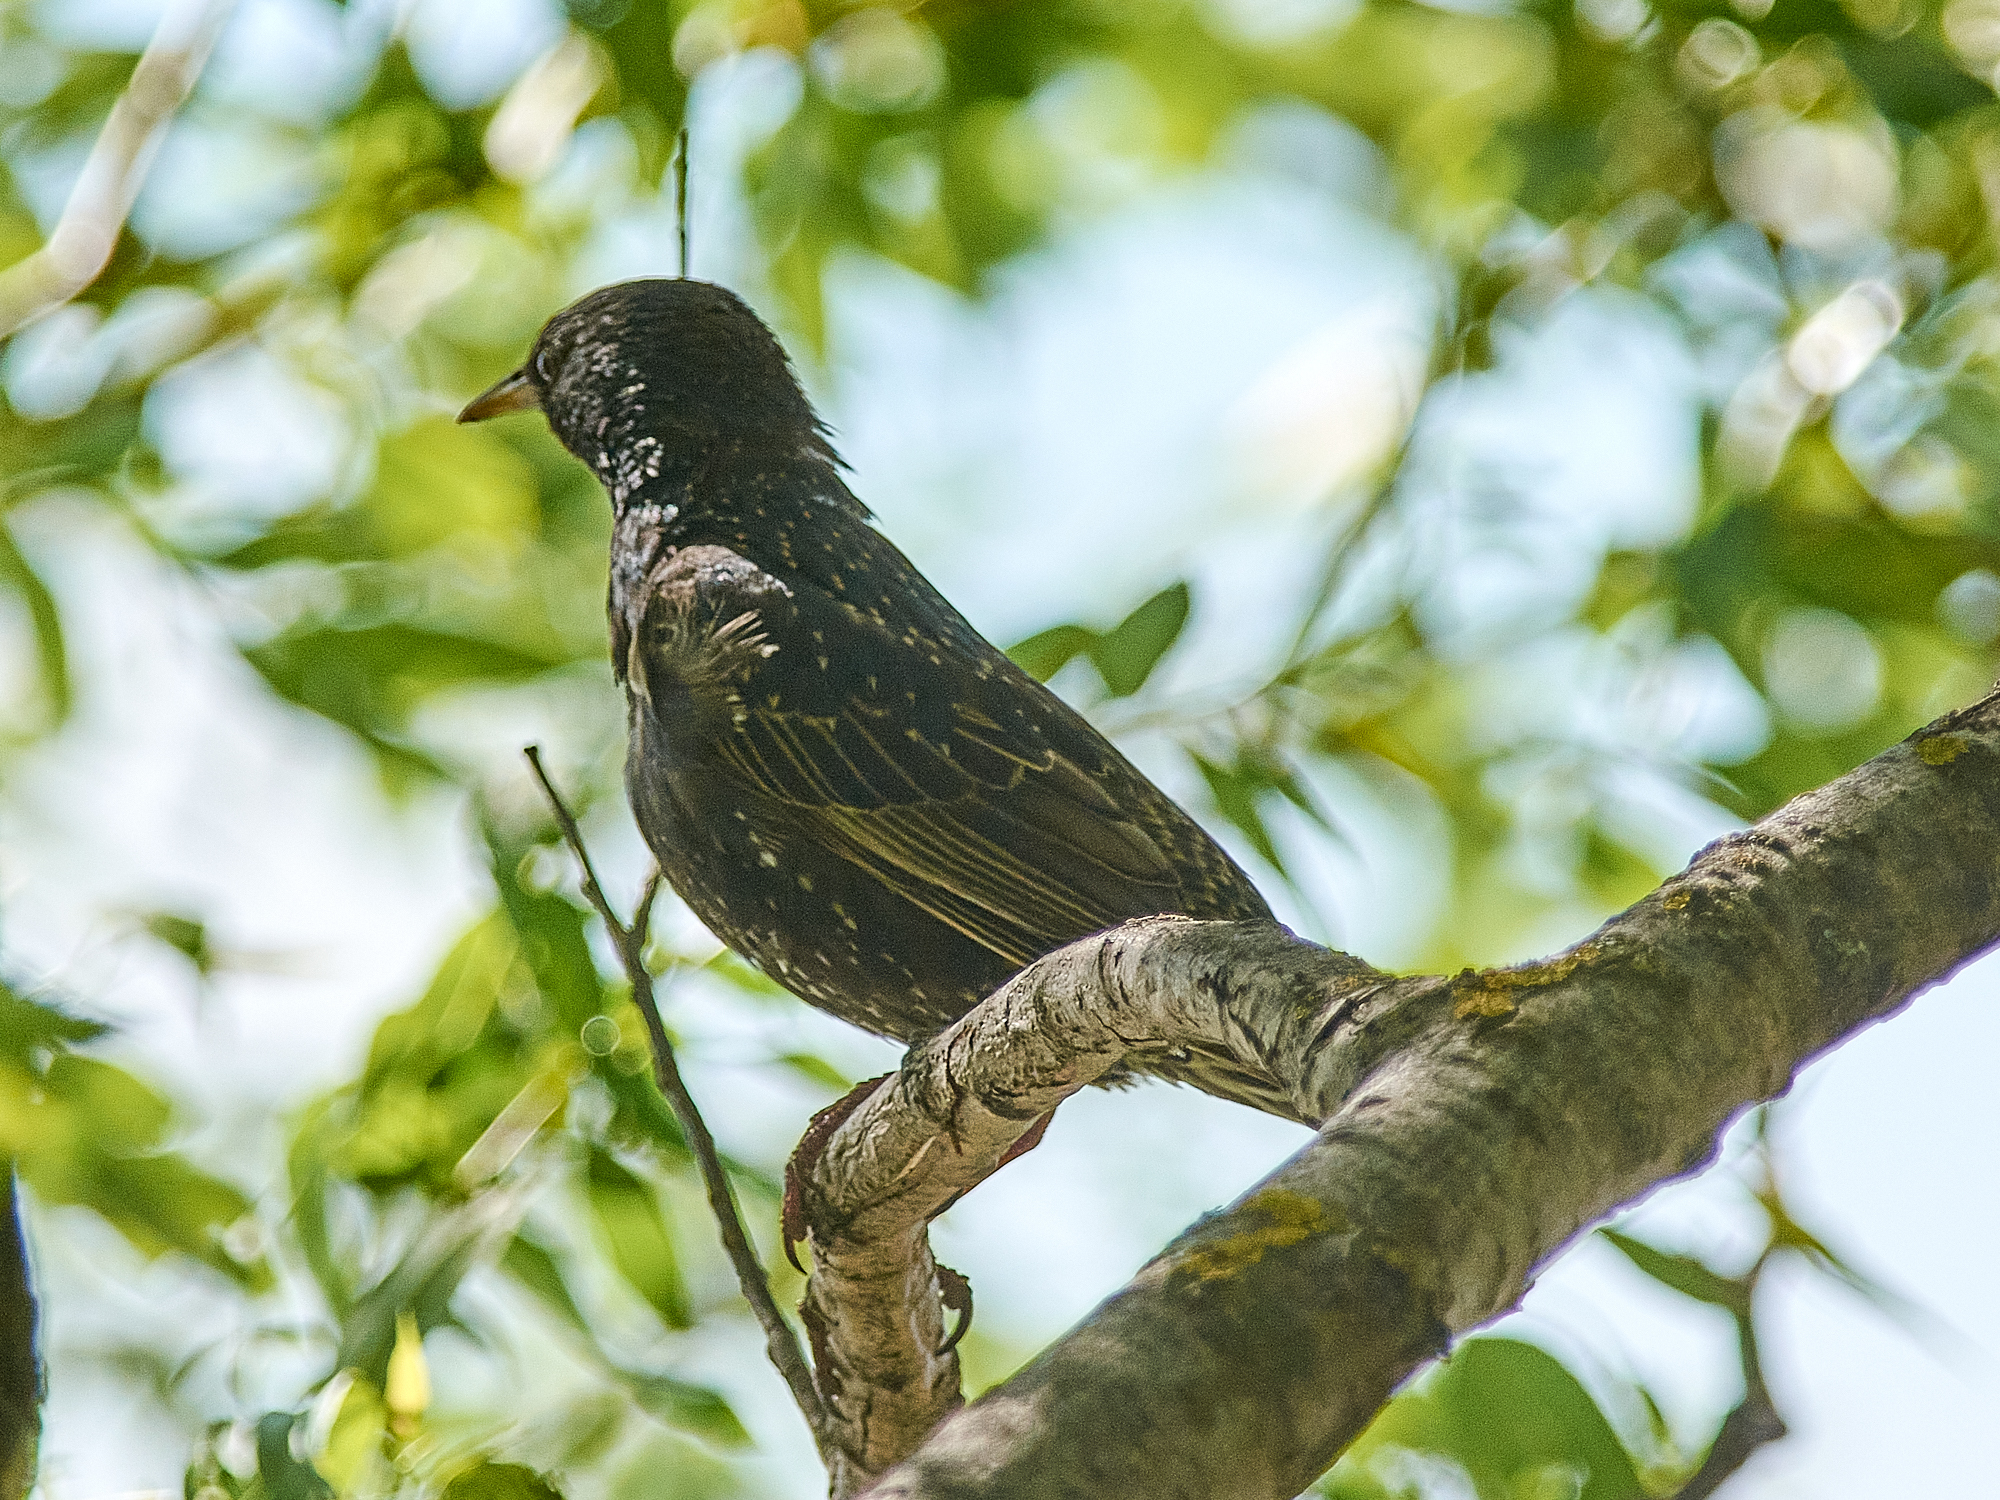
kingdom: Animalia
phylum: Chordata
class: Aves
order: Passeriformes
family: Sturnidae
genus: Sturnus
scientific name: Sturnus vulgaris
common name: Common starling
